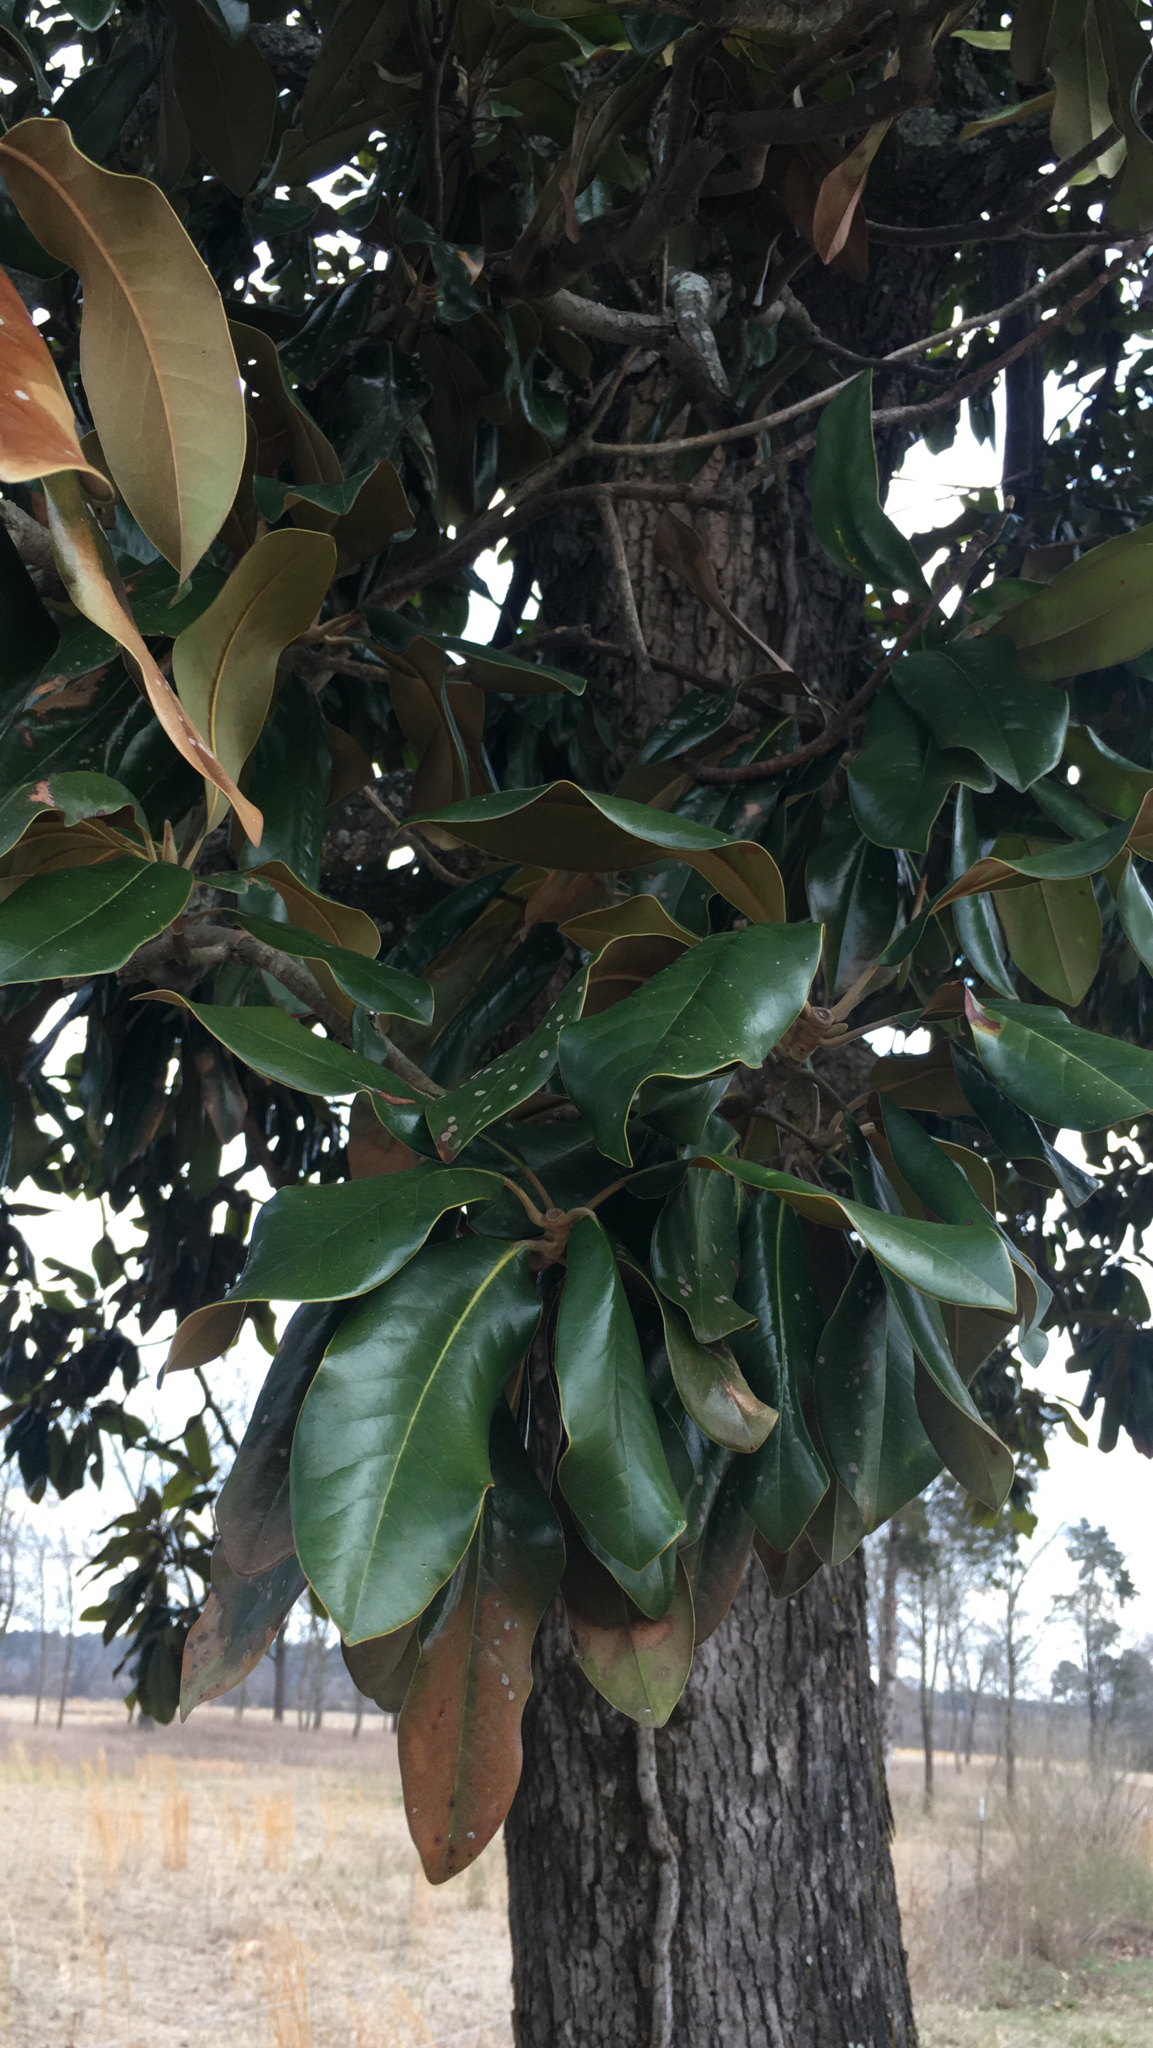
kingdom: Plantae
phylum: Tracheophyta
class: Magnoliopsida
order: Magnoliales
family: Magnoliaceae
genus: Magnolia
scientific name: Magnolia grandiflora
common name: Southern magnolia
